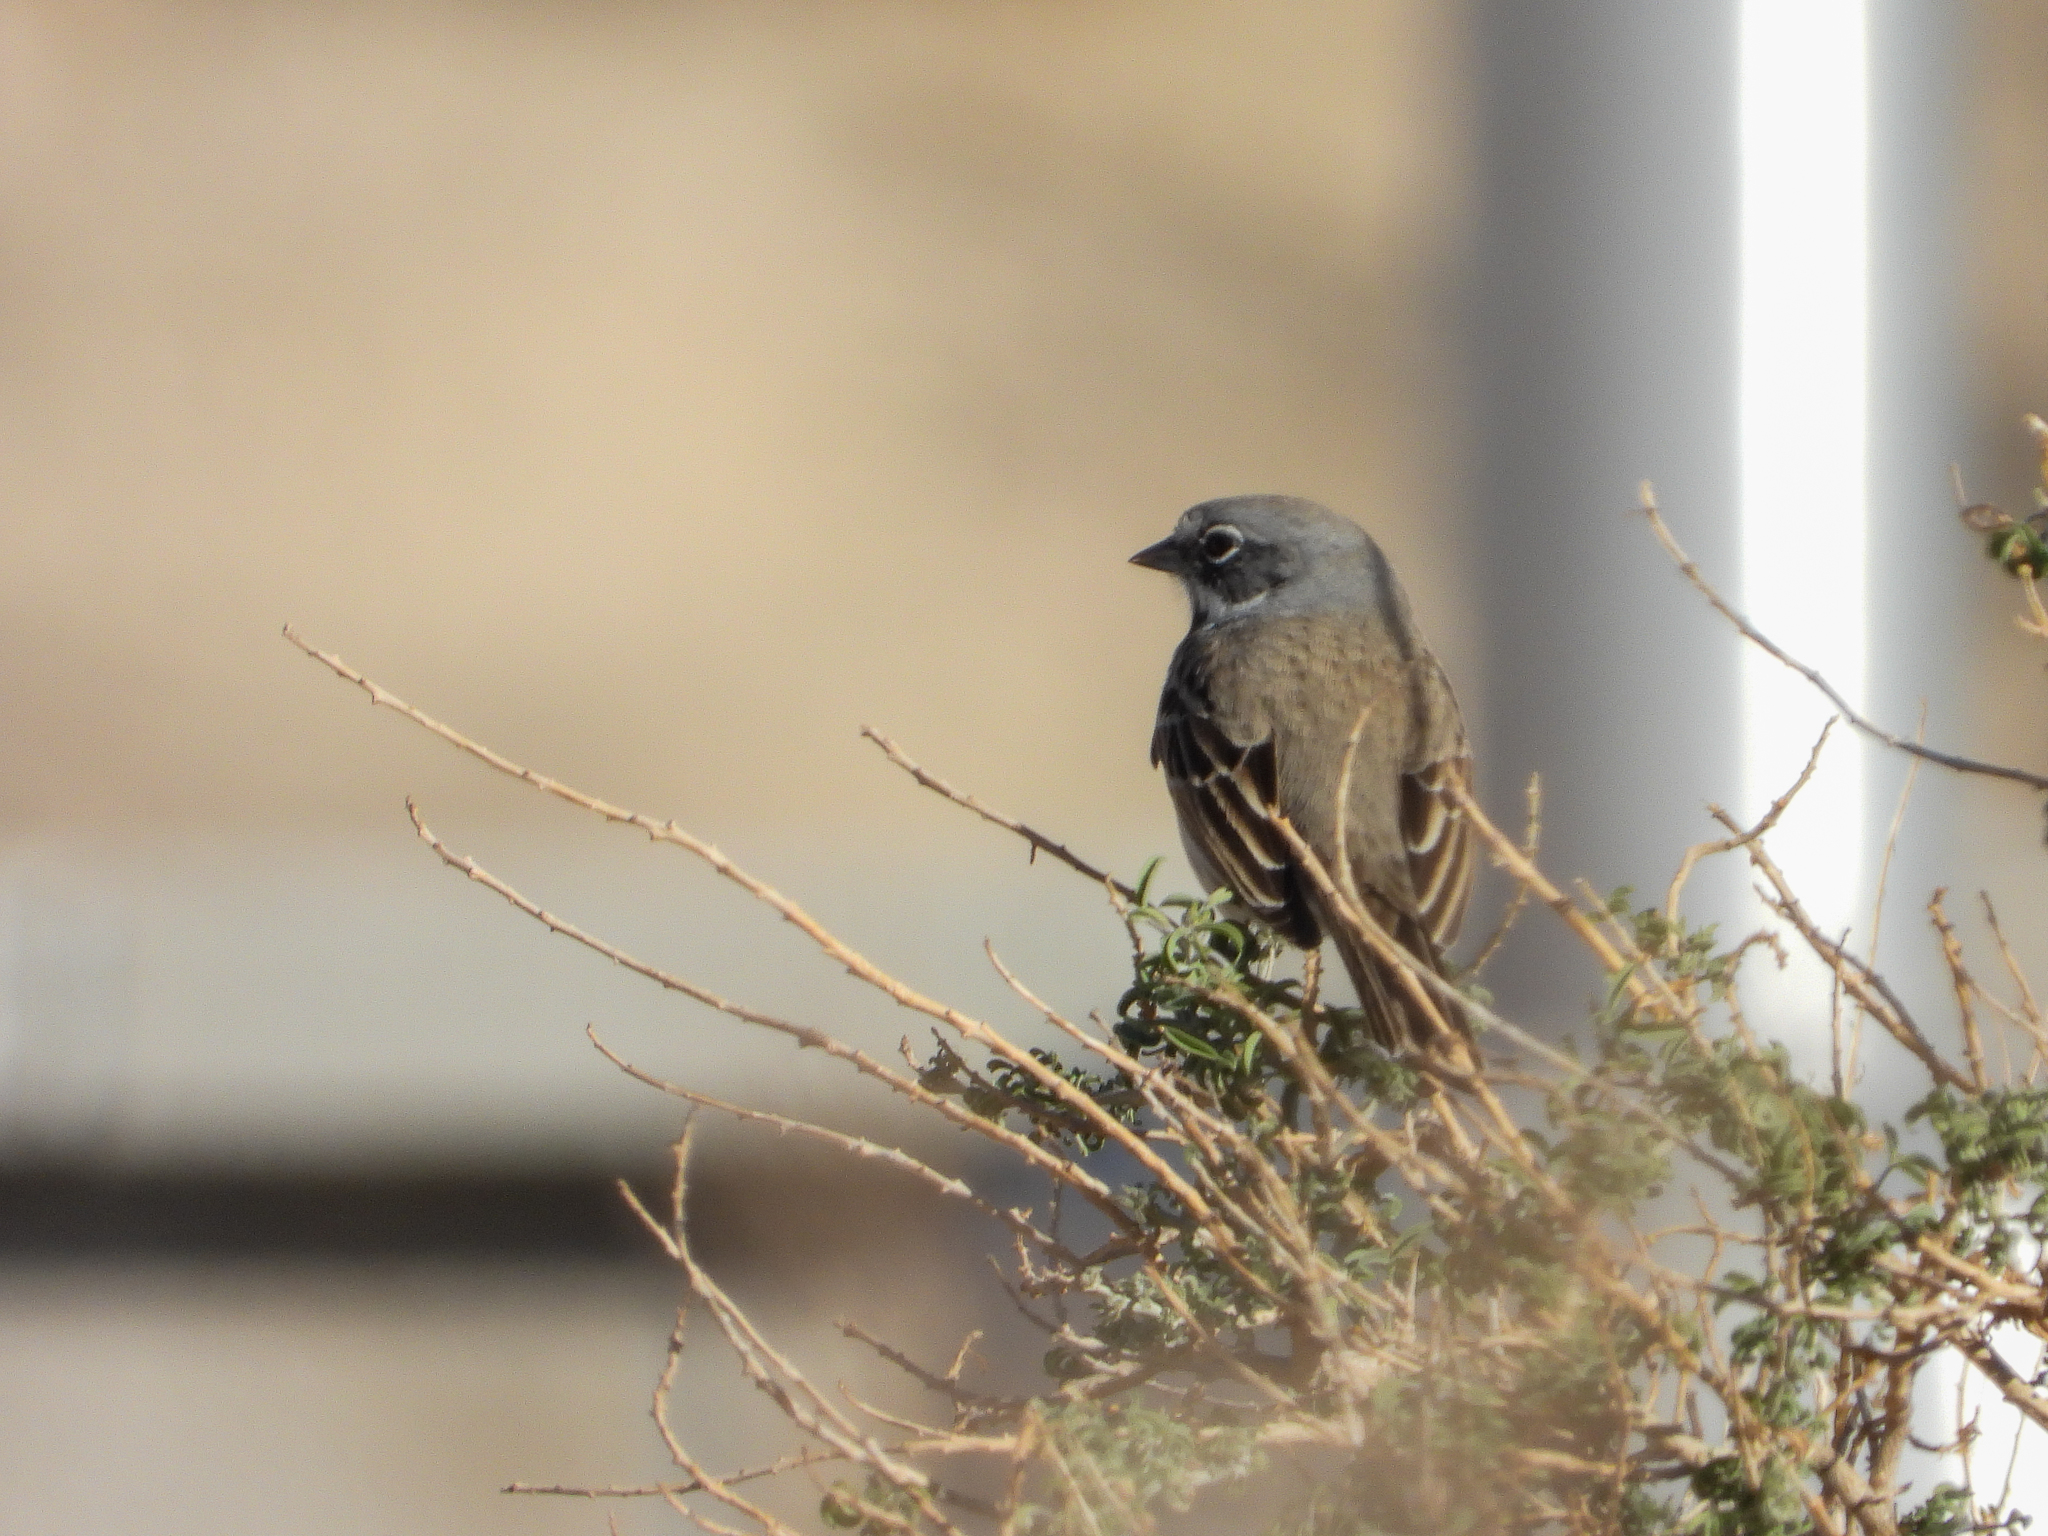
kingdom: Animalia
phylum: Chordata
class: Aves
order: Passeriformes
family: Passerellidae
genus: Artemisiospiza
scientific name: Artemisiospiza belli
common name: Bell's sparrow
